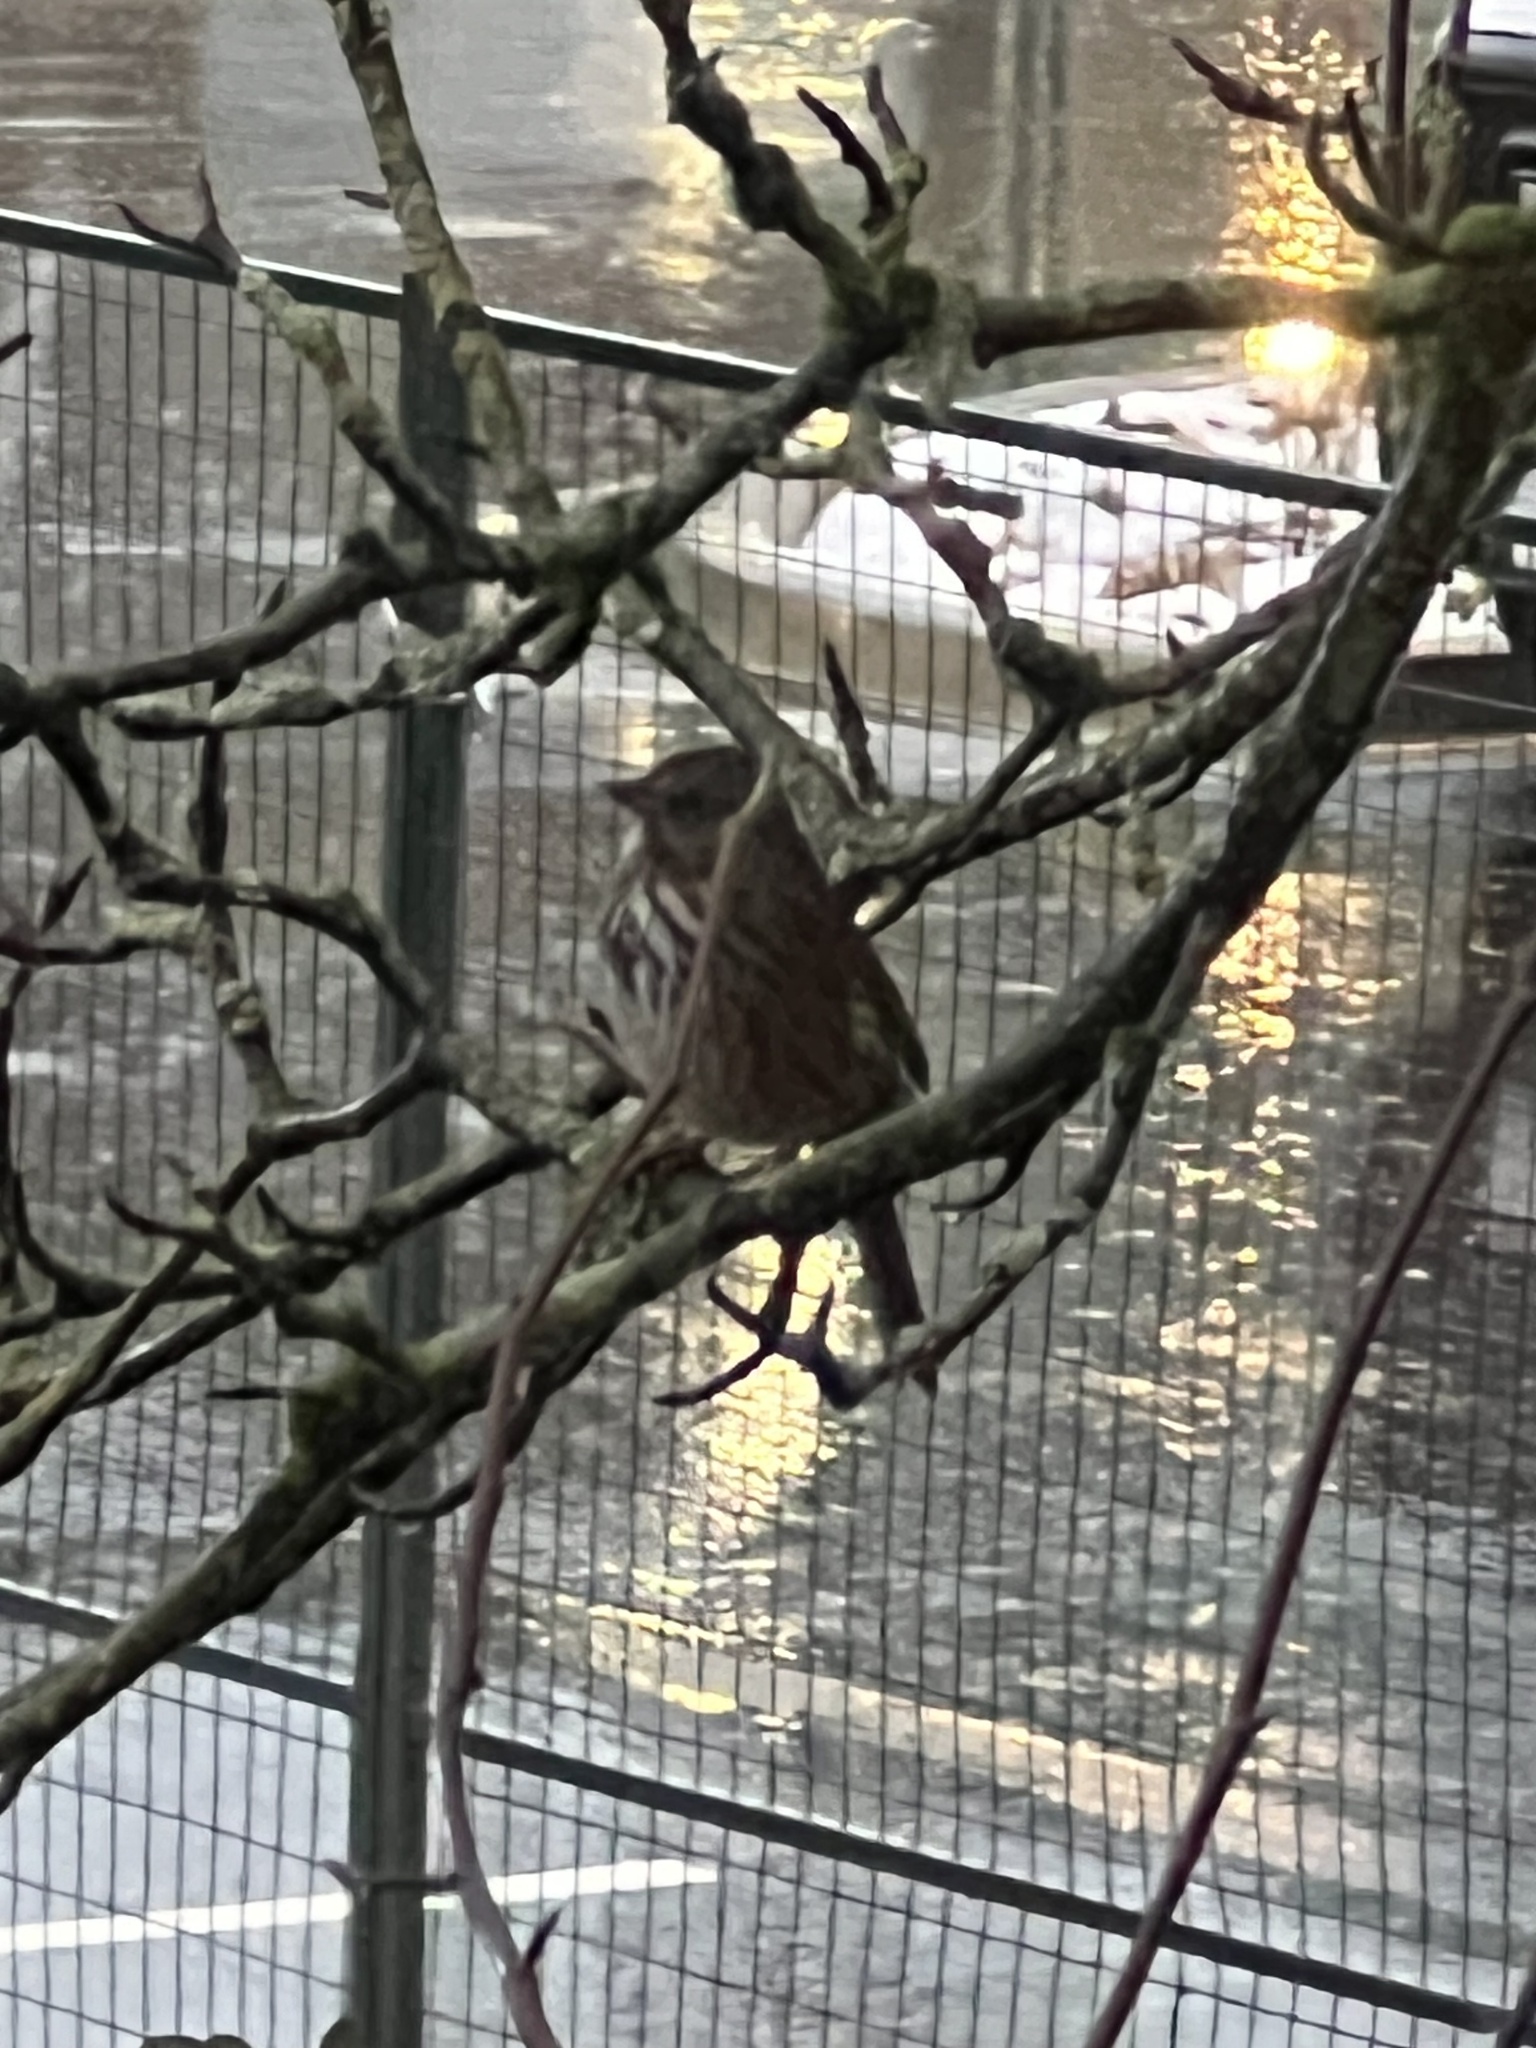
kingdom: Animalia
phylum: Chordata
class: Aves
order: Passeriformes
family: Passerellidae
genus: Melospiza
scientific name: Melospiza melodia
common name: Song sparrow
